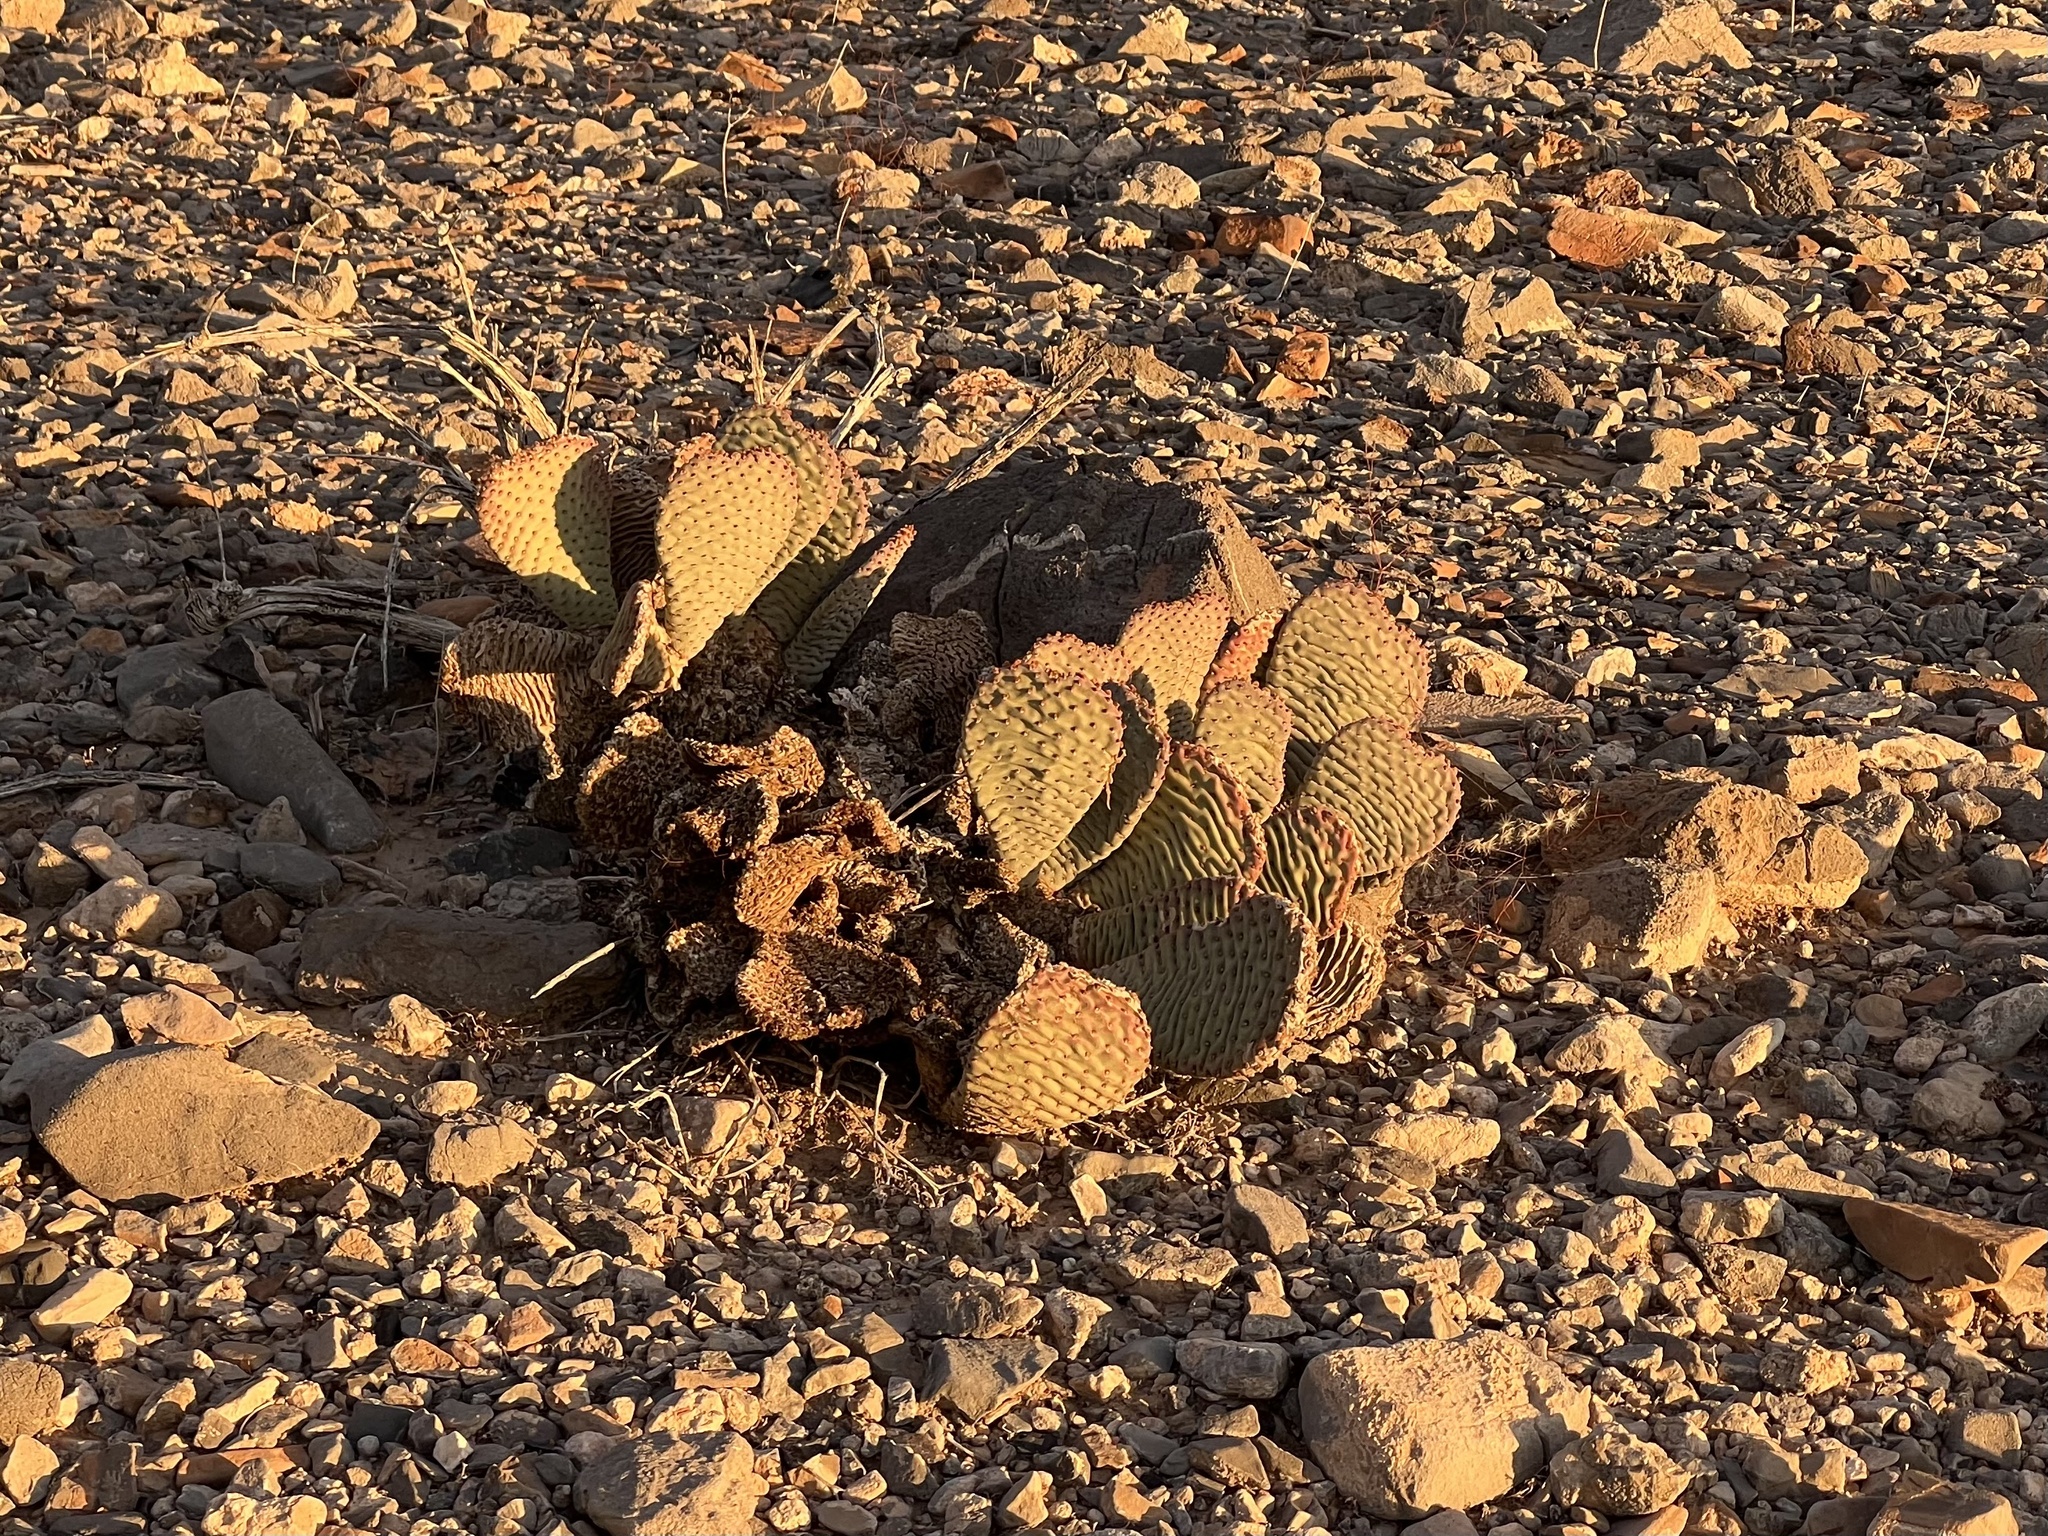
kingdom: Plantae
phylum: Tracheophyta
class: Magnoliopsida
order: Caryophyllales
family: Cactaceae
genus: Opuntia
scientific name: Opuntia basilaris
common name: Beavertail prickly-pear
